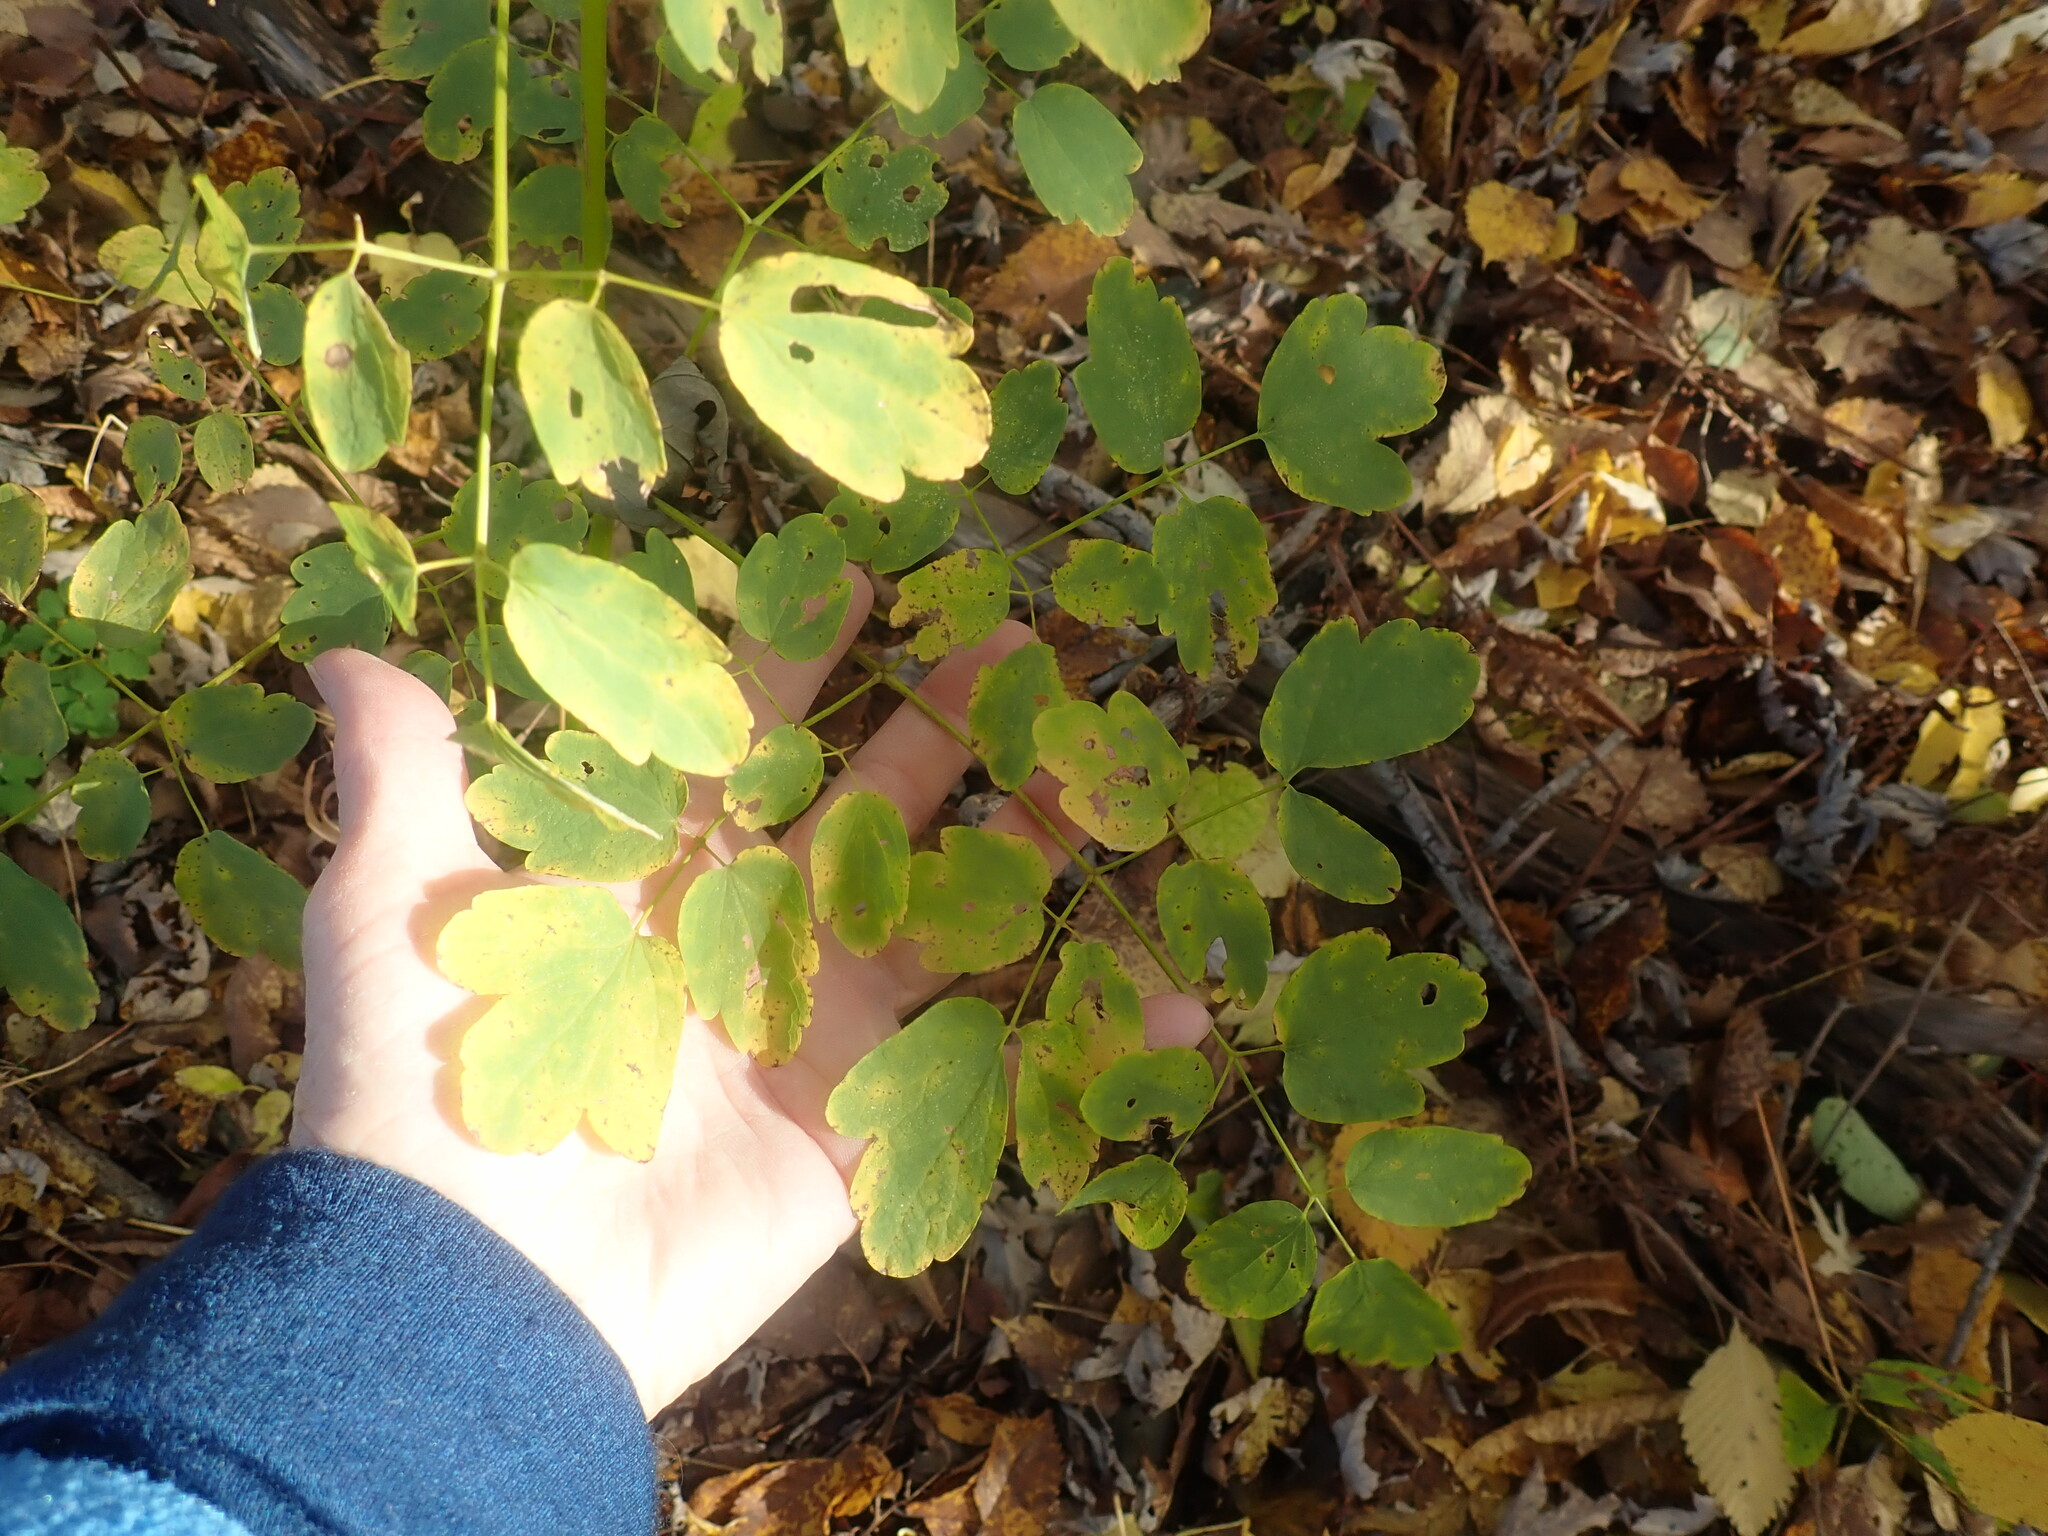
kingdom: Plantae
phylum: Tracheophyta
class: Magnoliopsida
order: Ranunculales
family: Ranunculaceae
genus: Thalictrum
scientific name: Thalictrum pubescens
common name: King-of-the-meadow
